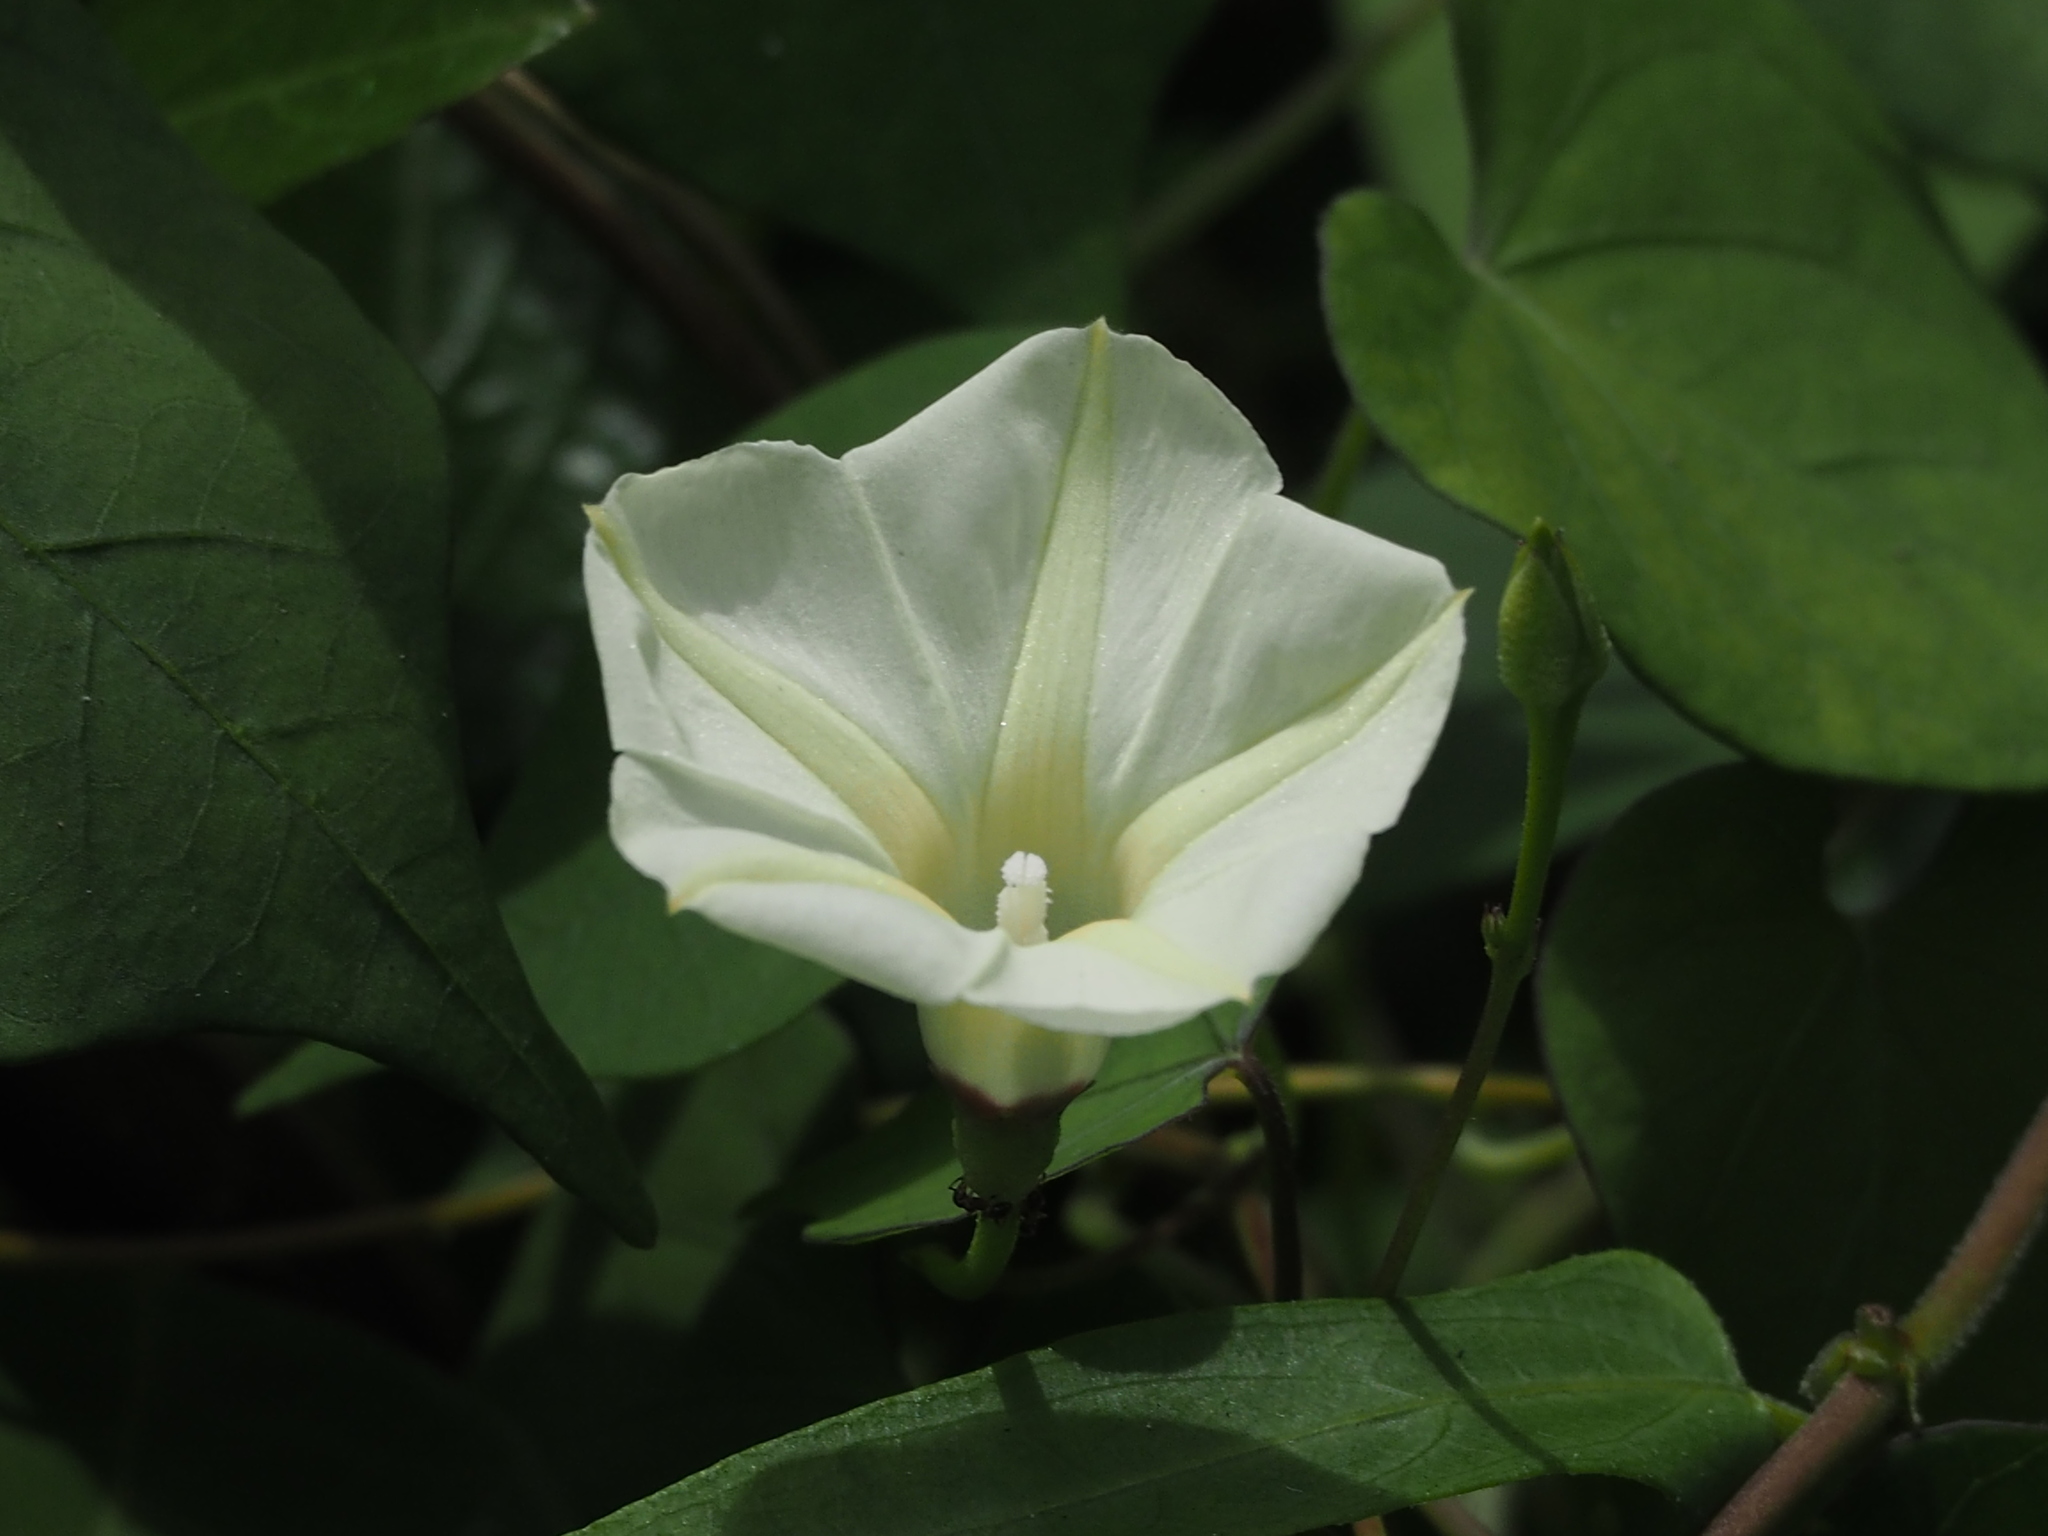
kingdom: Plantae
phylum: Tracheophyta
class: Magnoliopsida
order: Solanales
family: Convolvulaceae
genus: Ipomoea
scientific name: Ipomoea obscura
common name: Obscure morning-glory
